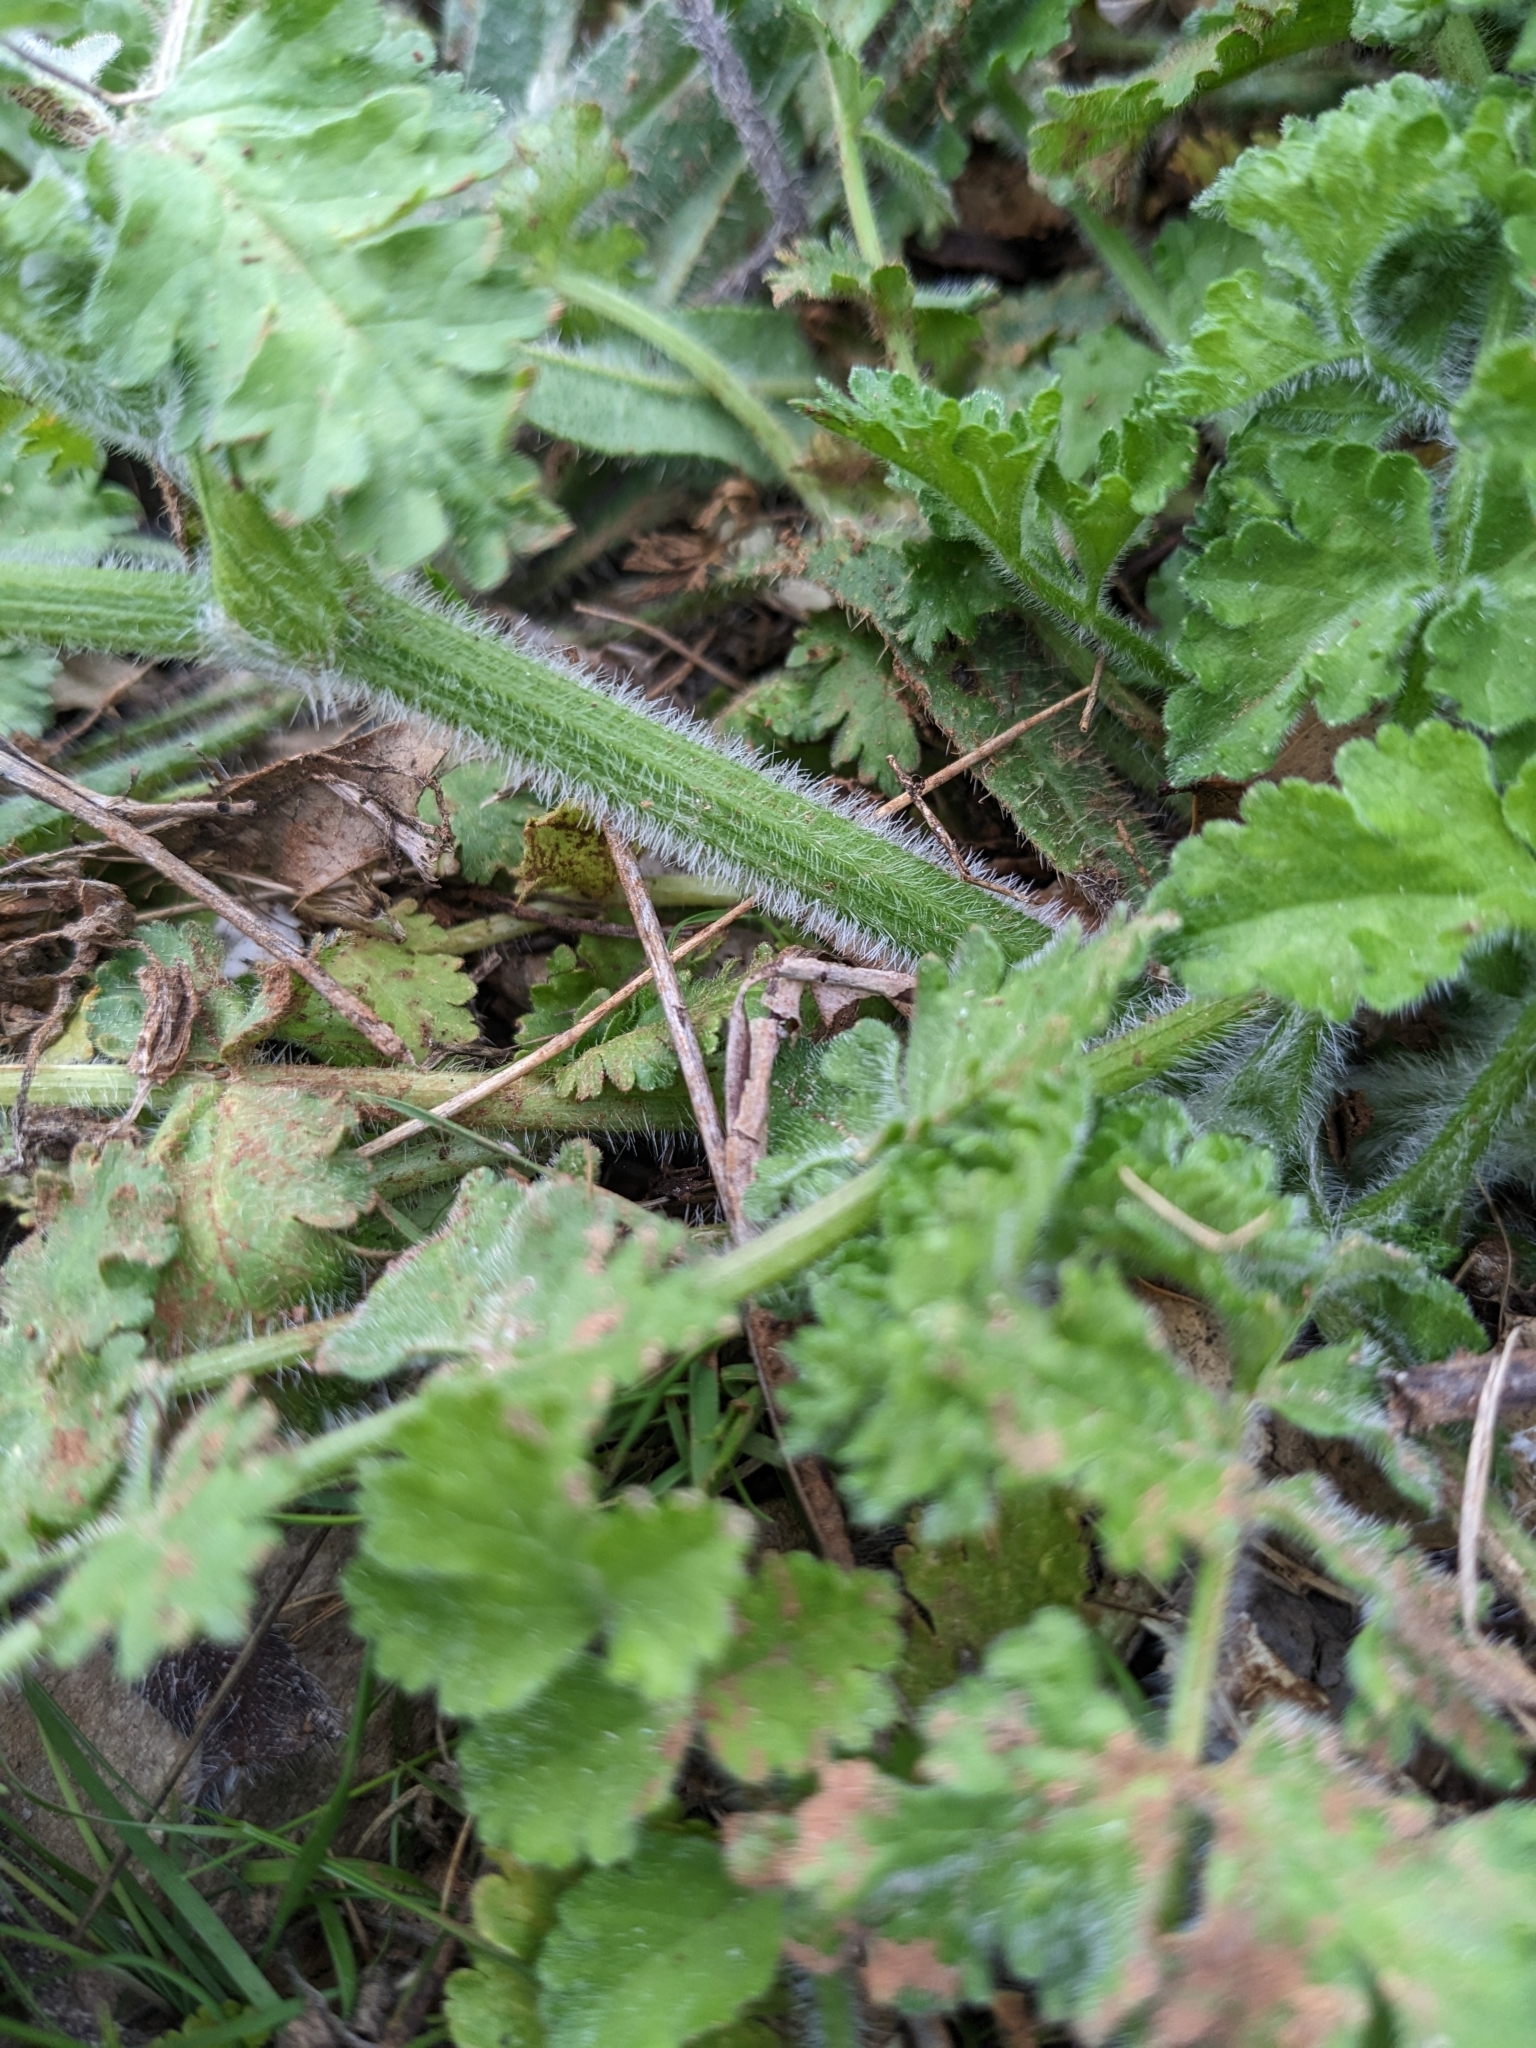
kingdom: Plantae
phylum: Tracheophyta
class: Magnoliopsida
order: Apiales
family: Apiaceae
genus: Tordylium
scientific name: Tordylium apulum
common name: Mediterranean hartwort
